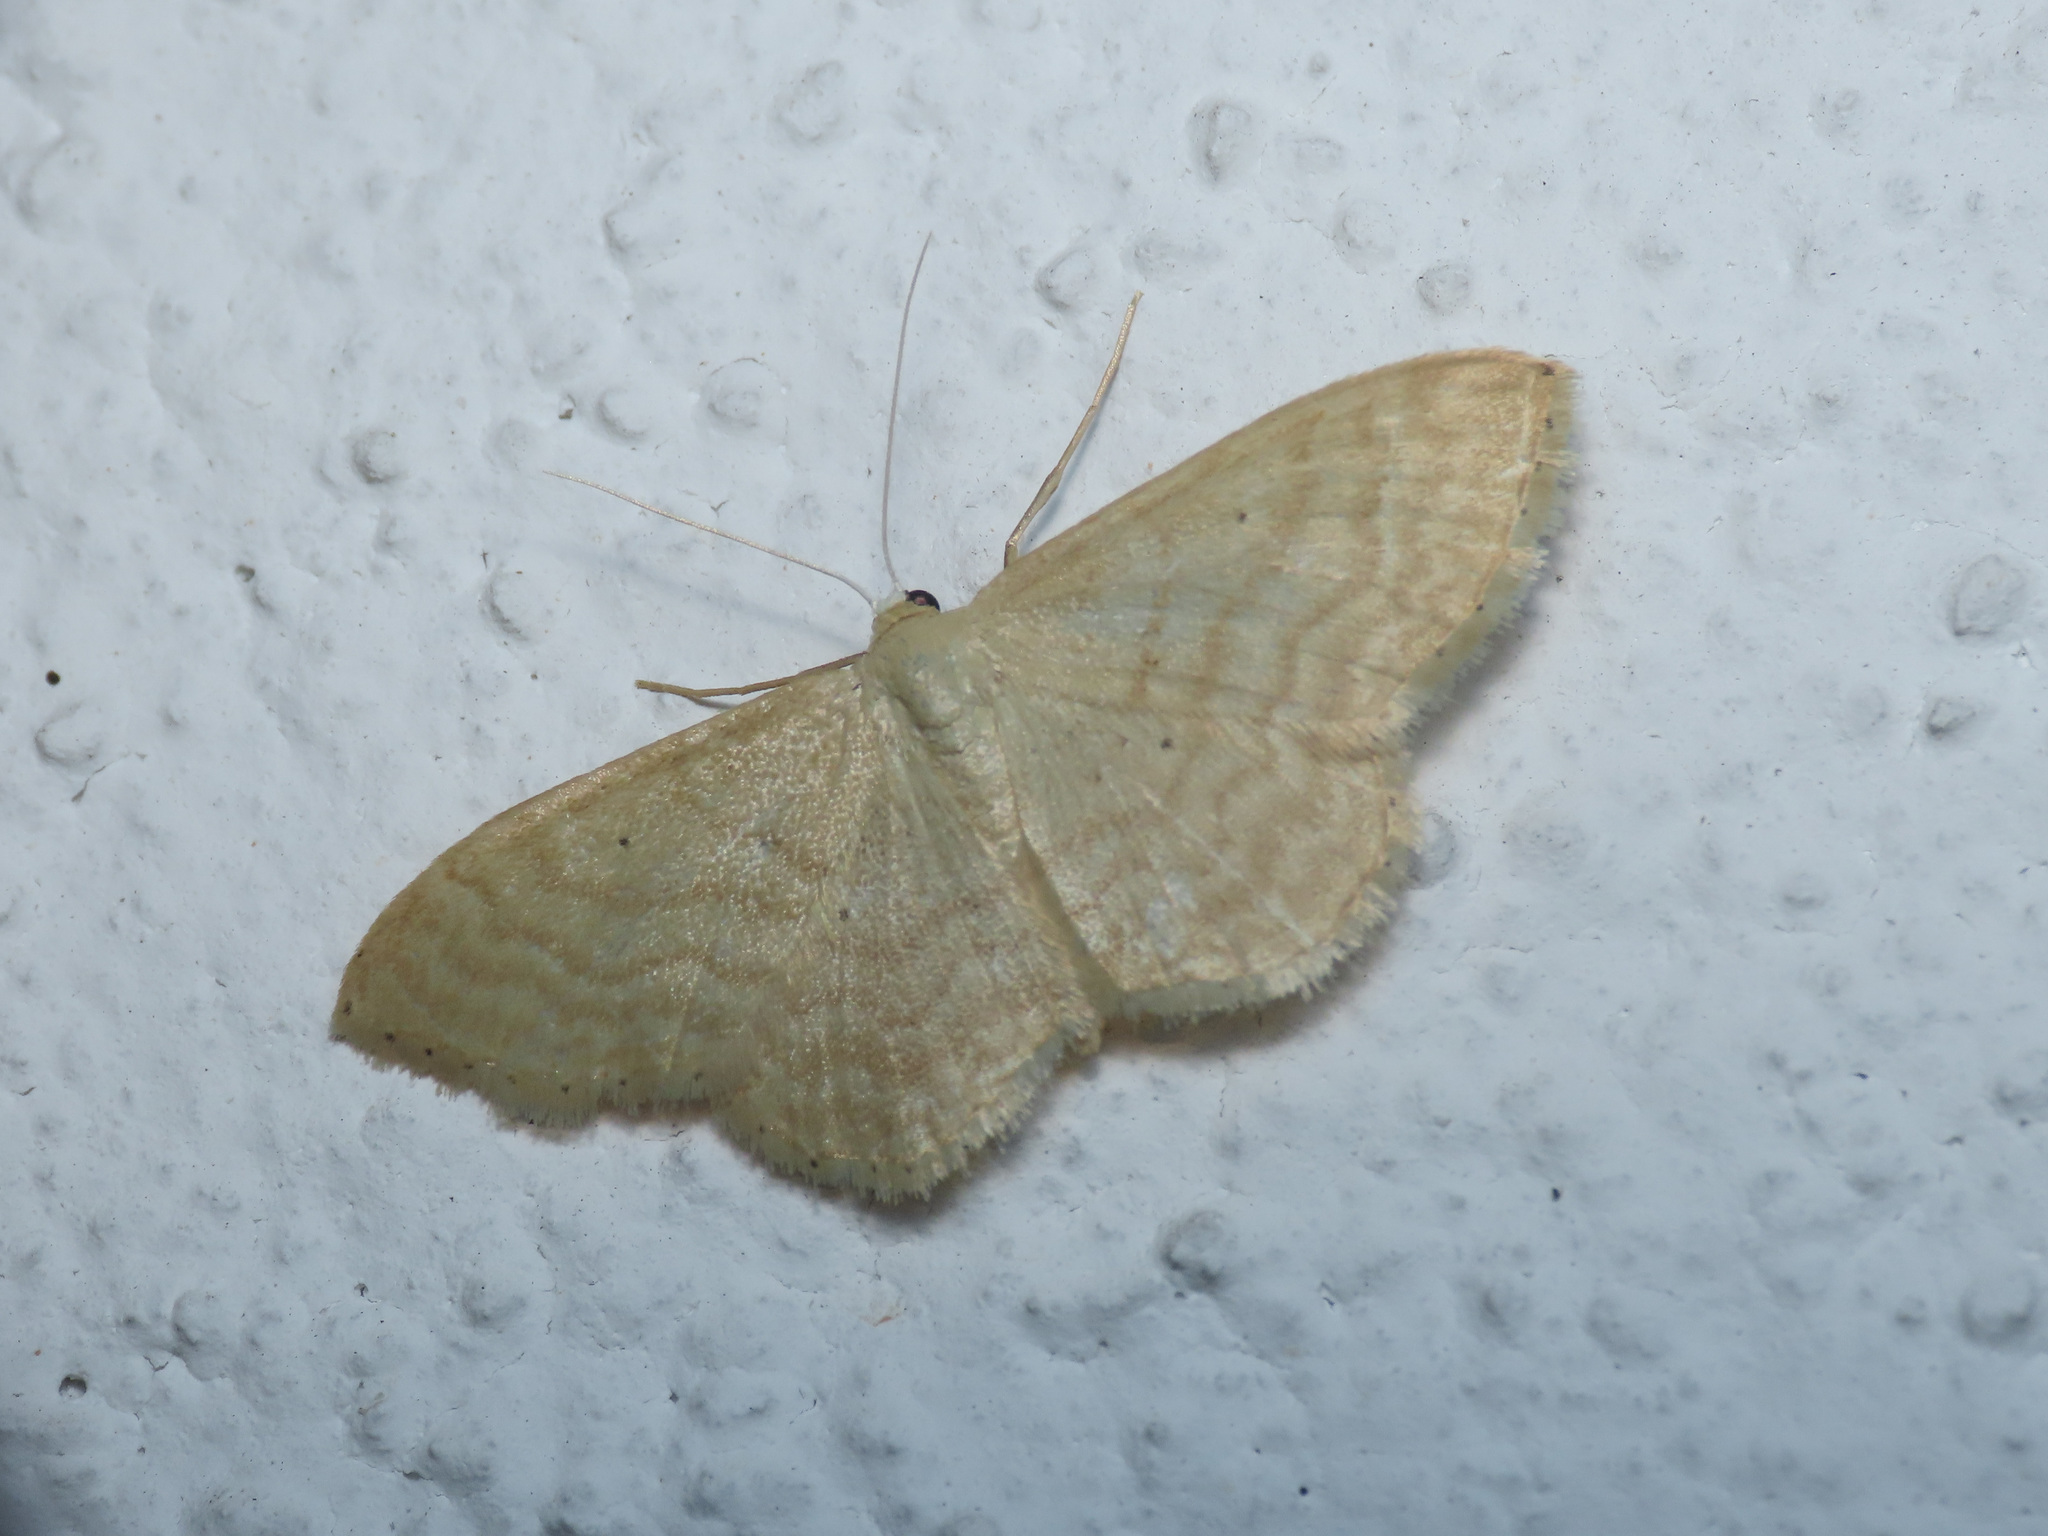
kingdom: Animalia
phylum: Arthropoda
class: Insecta
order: Lepidoptera
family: Geometridae
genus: Idaea
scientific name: Idaea fuscovenosa
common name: Dwarf cream wave
